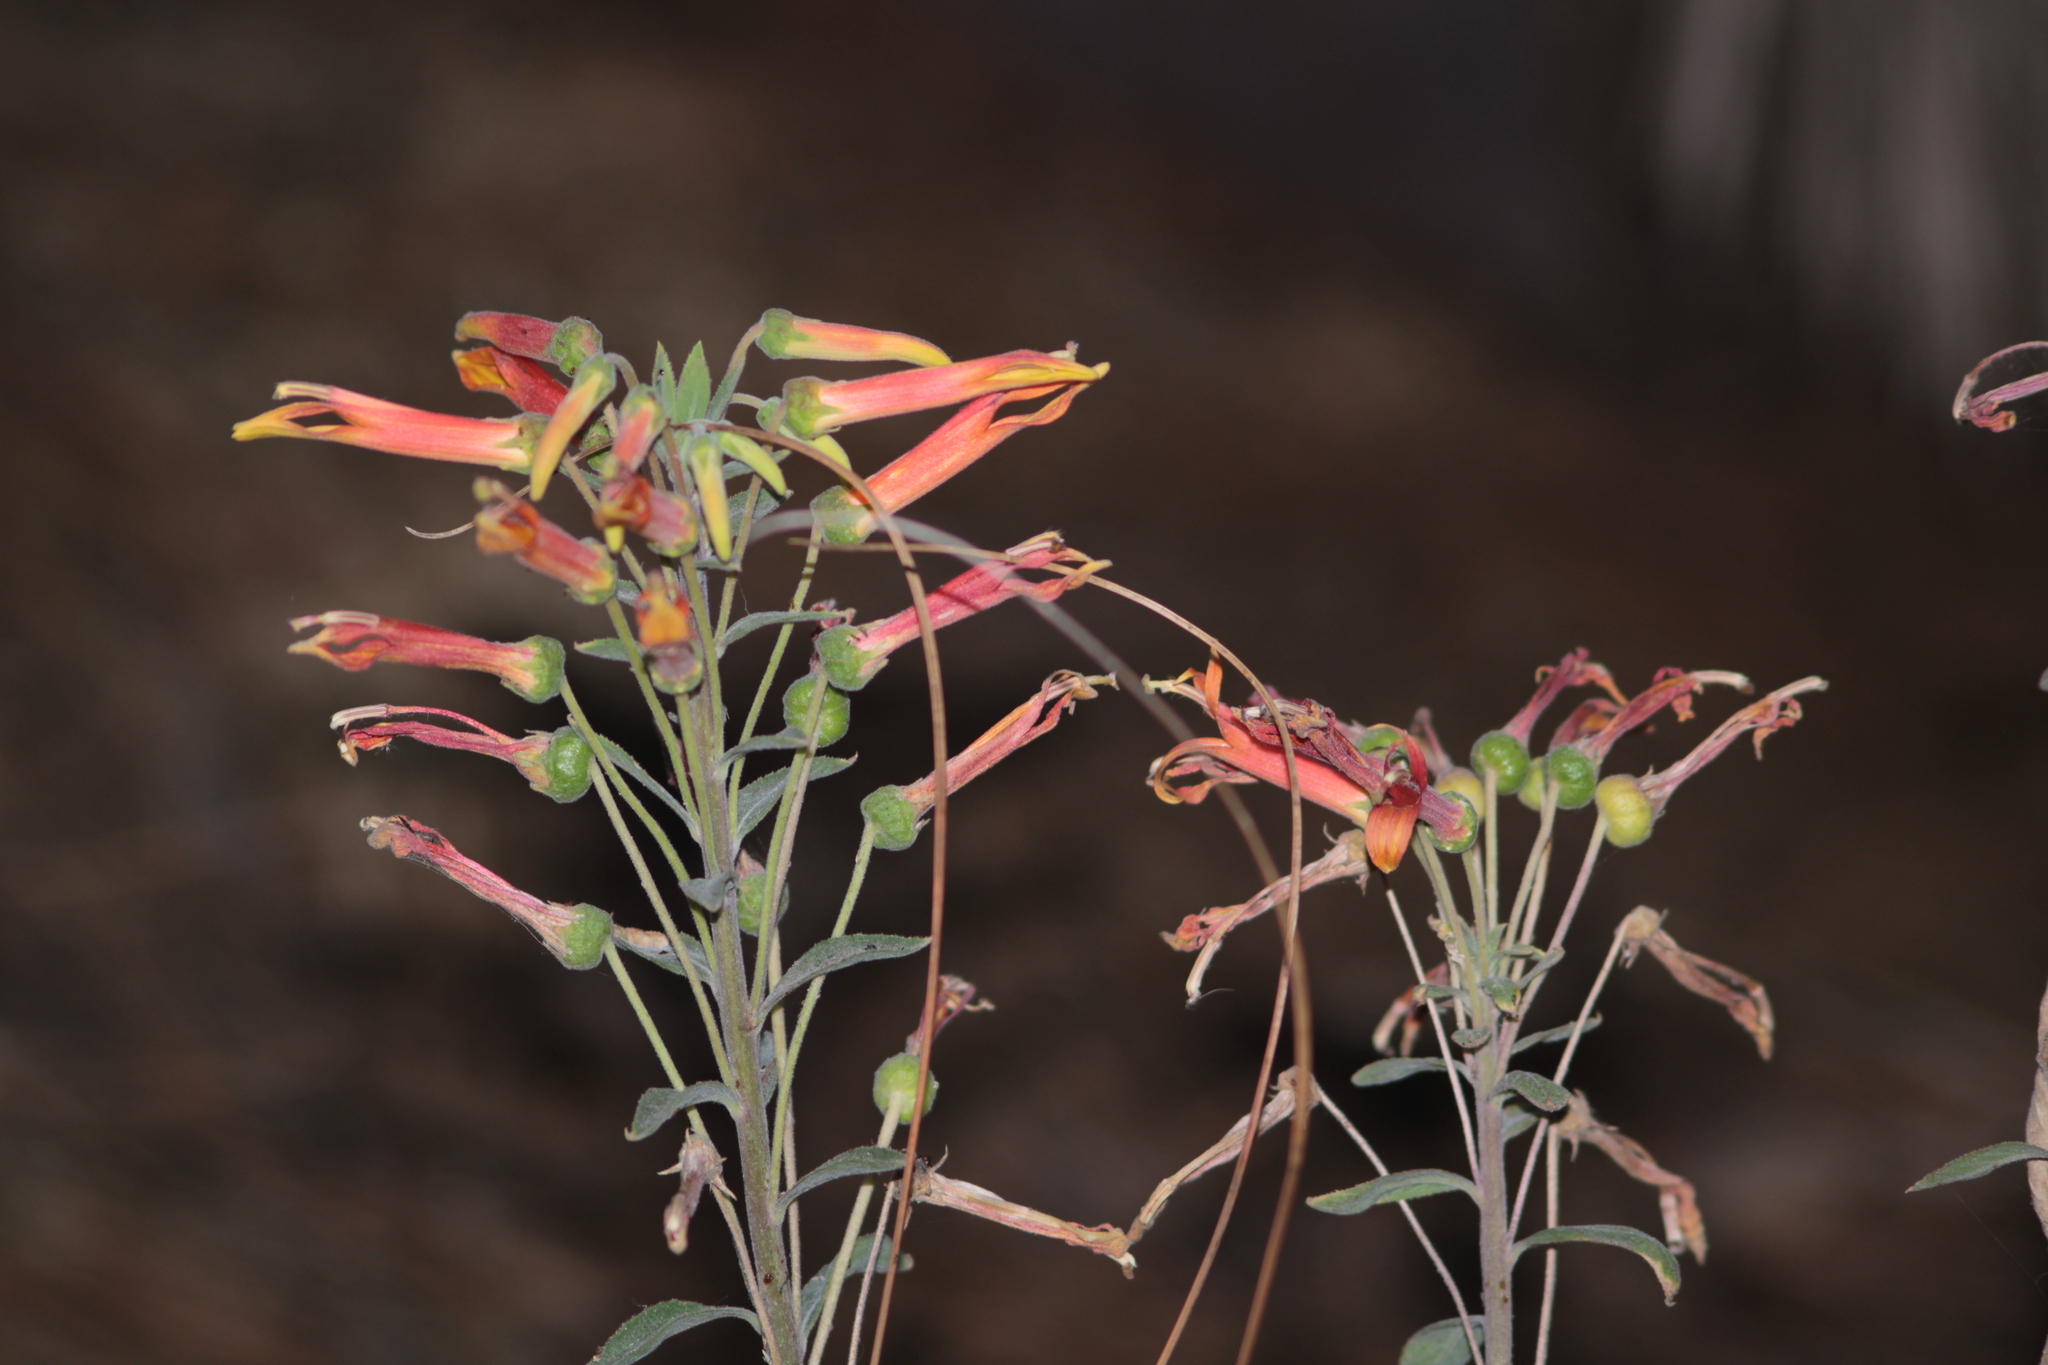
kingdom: Plantae
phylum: Tracheophyta
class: Magnoliopsida
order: Asterales
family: Campanulaceae
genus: Lobelia
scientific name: Lobelia laxiflora
